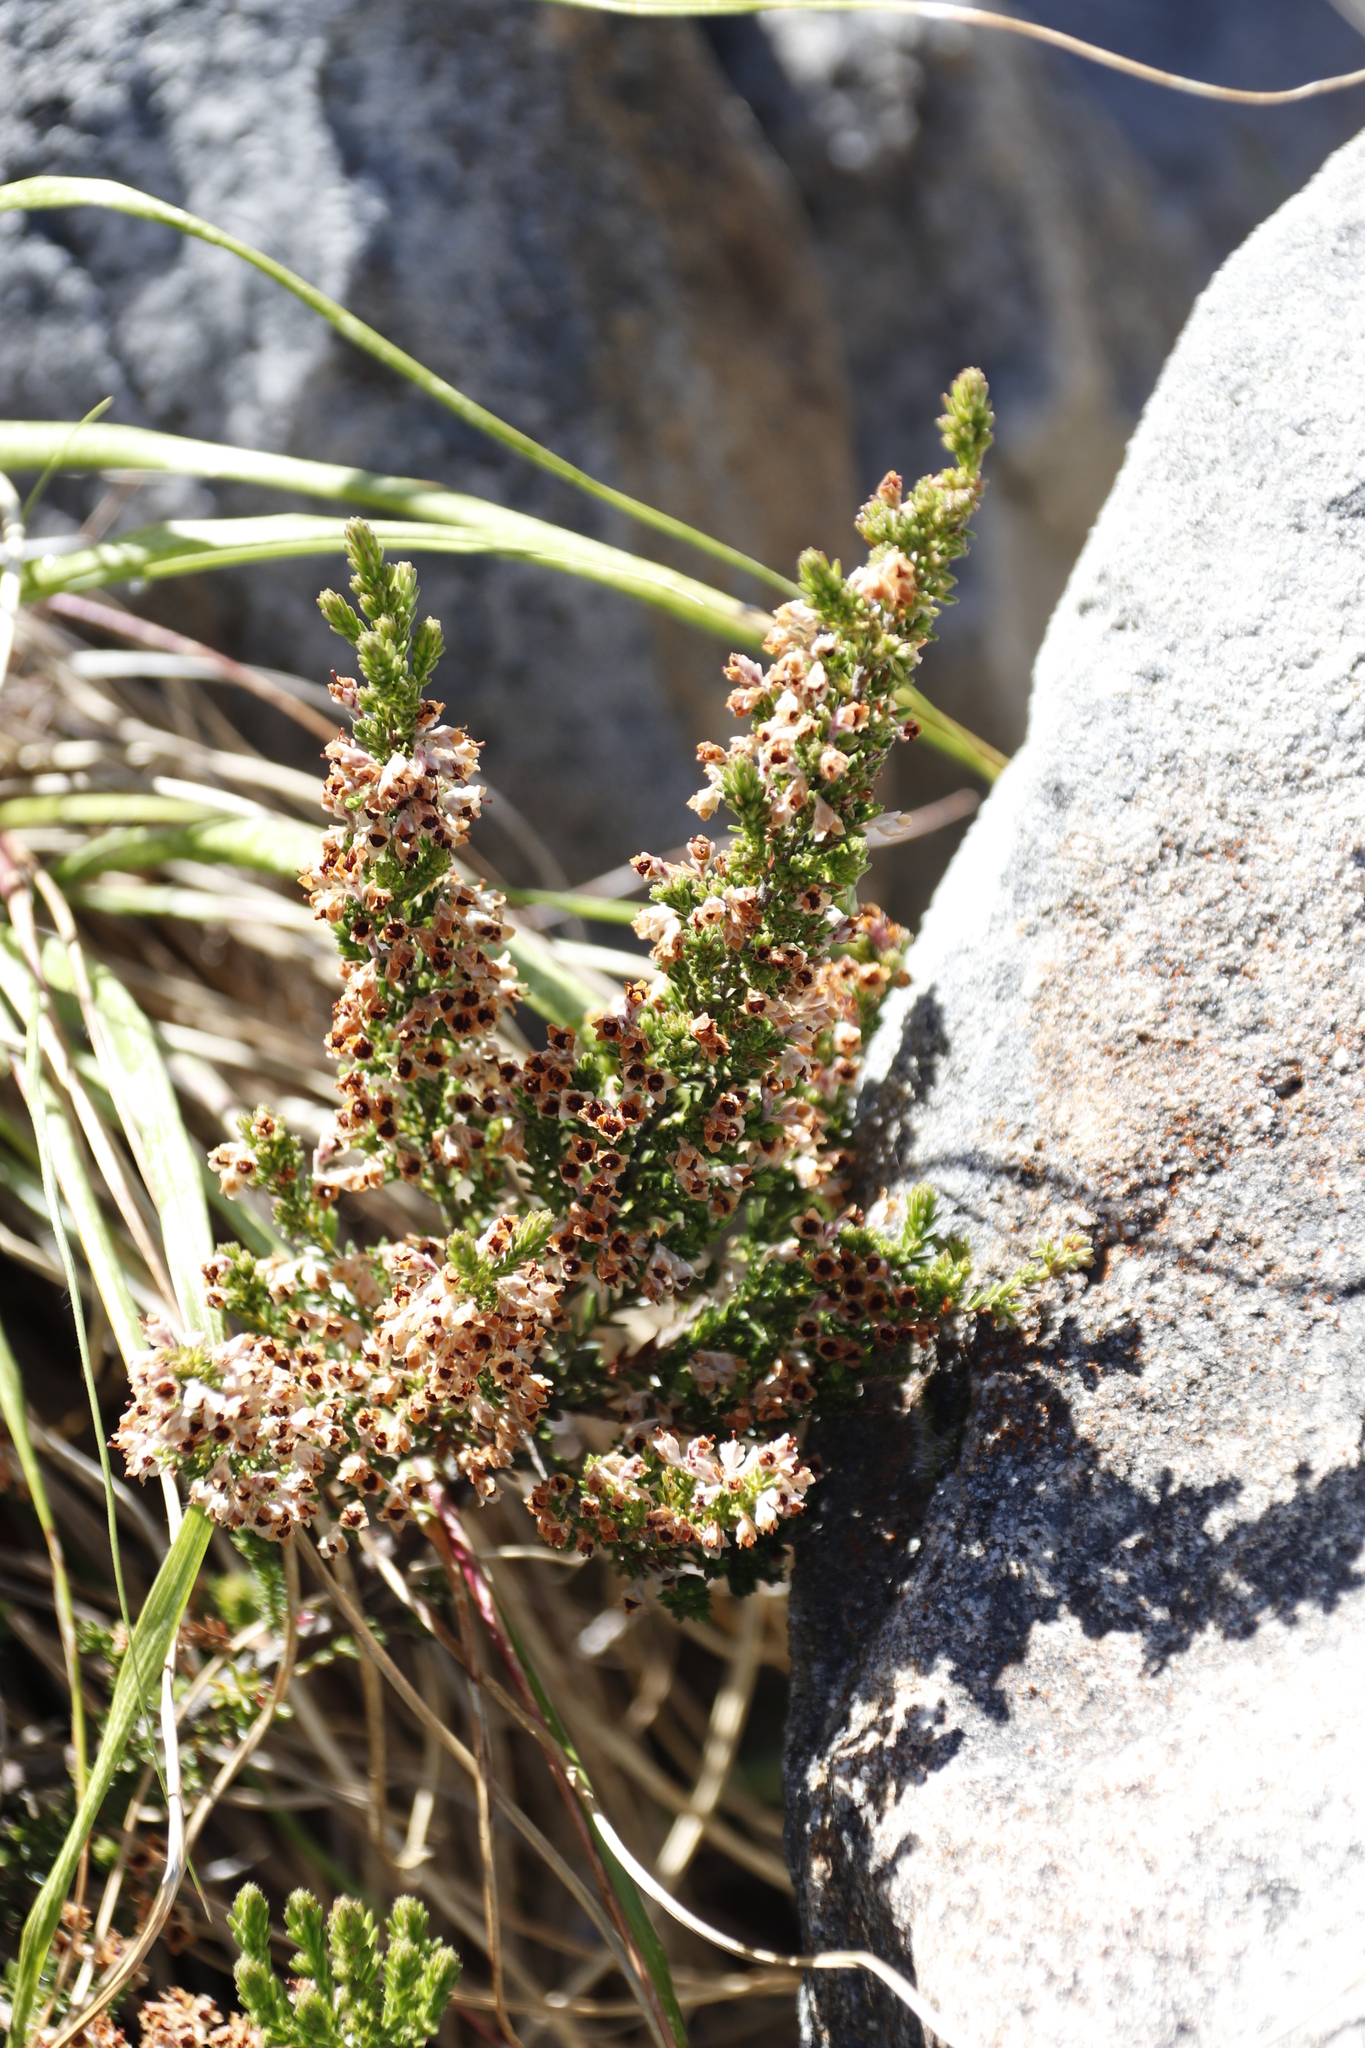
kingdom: Plantae
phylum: Tracheophyta
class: Magnoliopsida
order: Ericales
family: Ericaceae
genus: Erica
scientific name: Erica calycina
